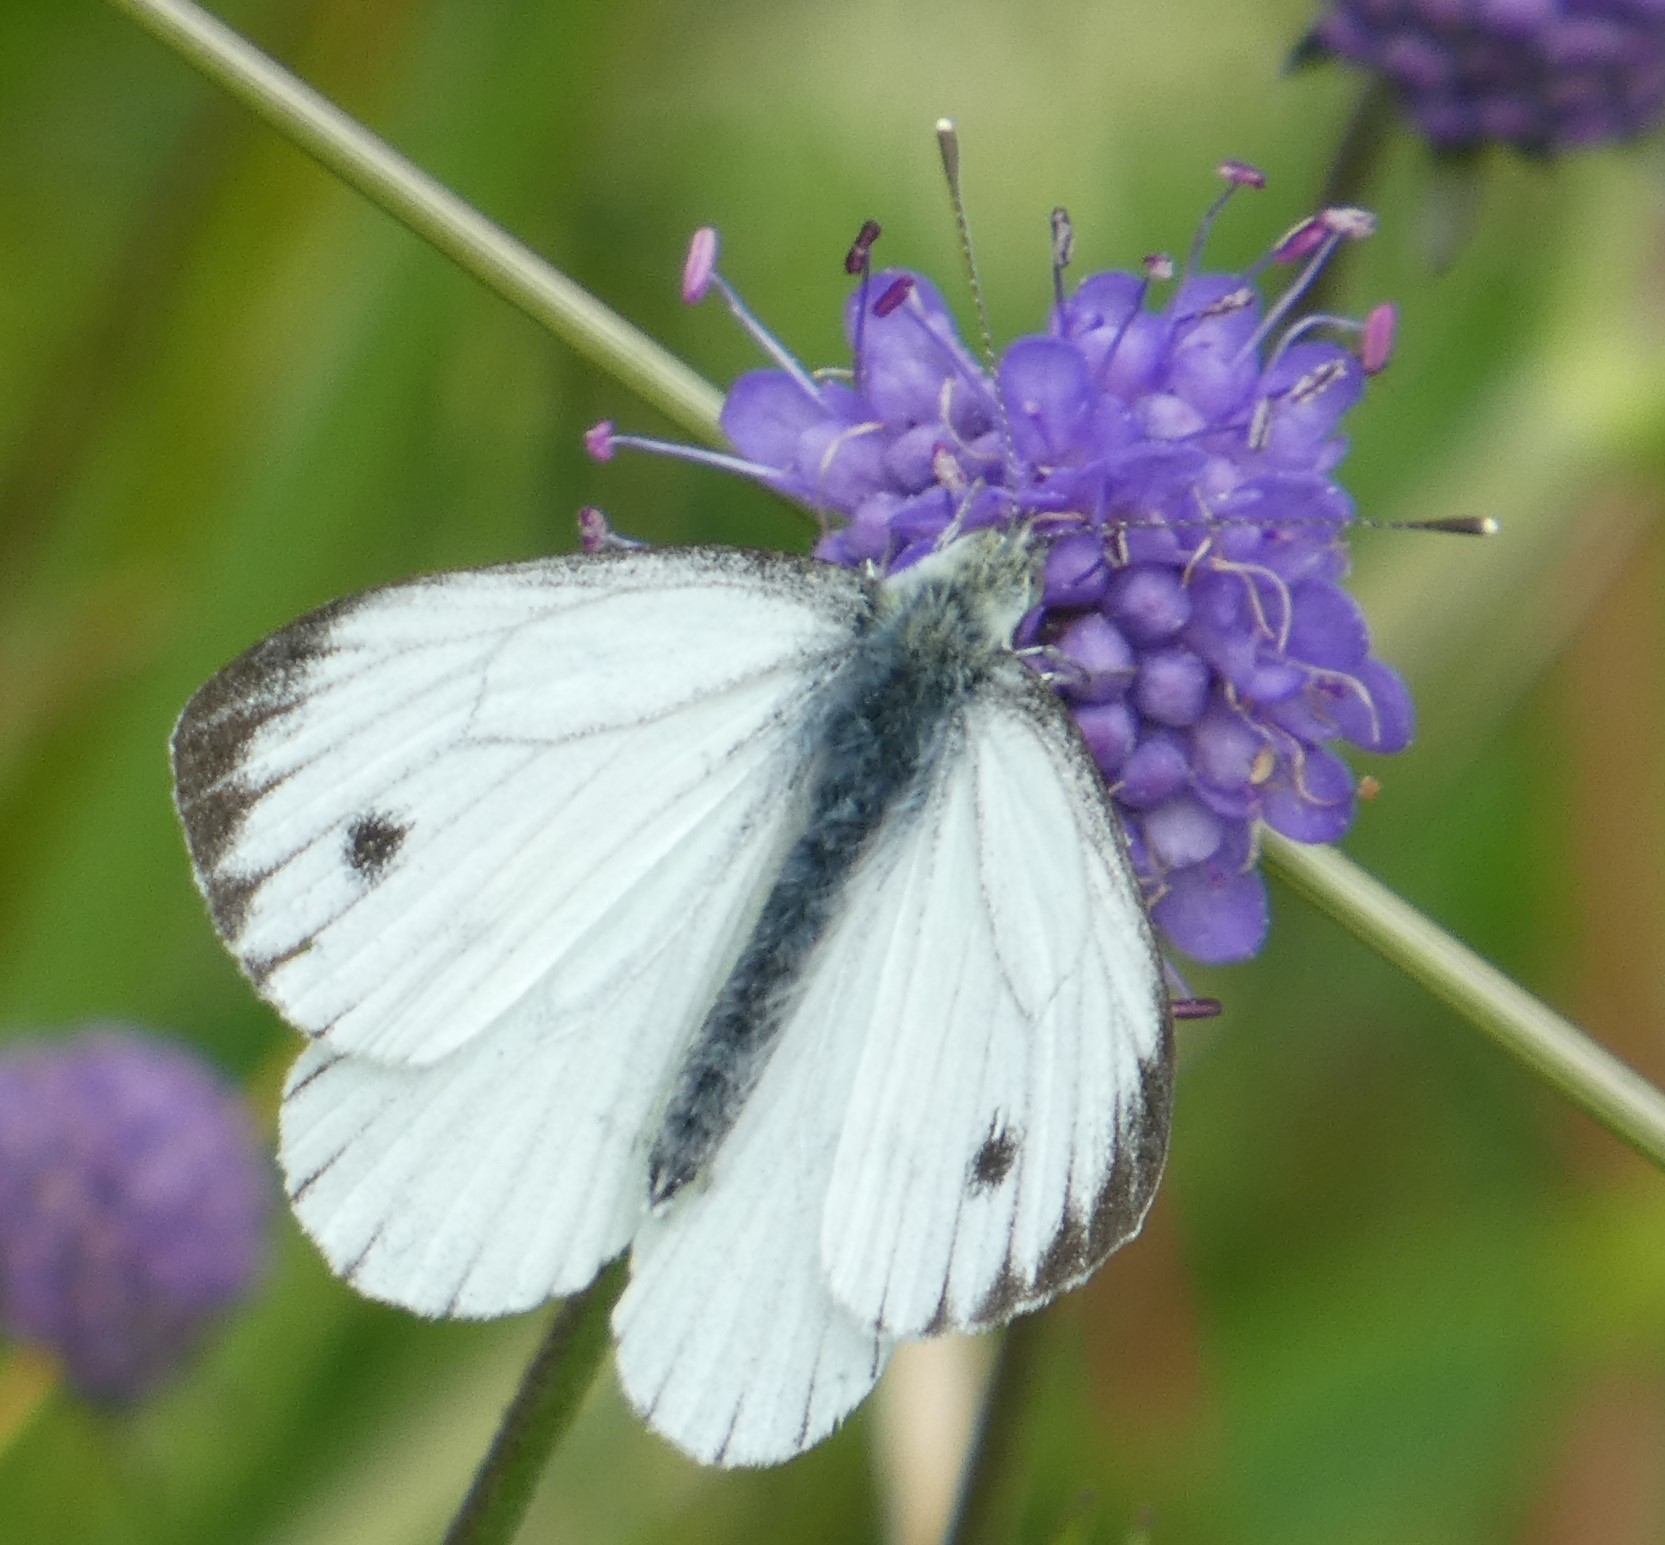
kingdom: Animalia
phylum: Arthropoda
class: Insecta
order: Lepidoptera
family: Pieridae
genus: Pieris
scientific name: Pieris napi
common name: Green-veined white
